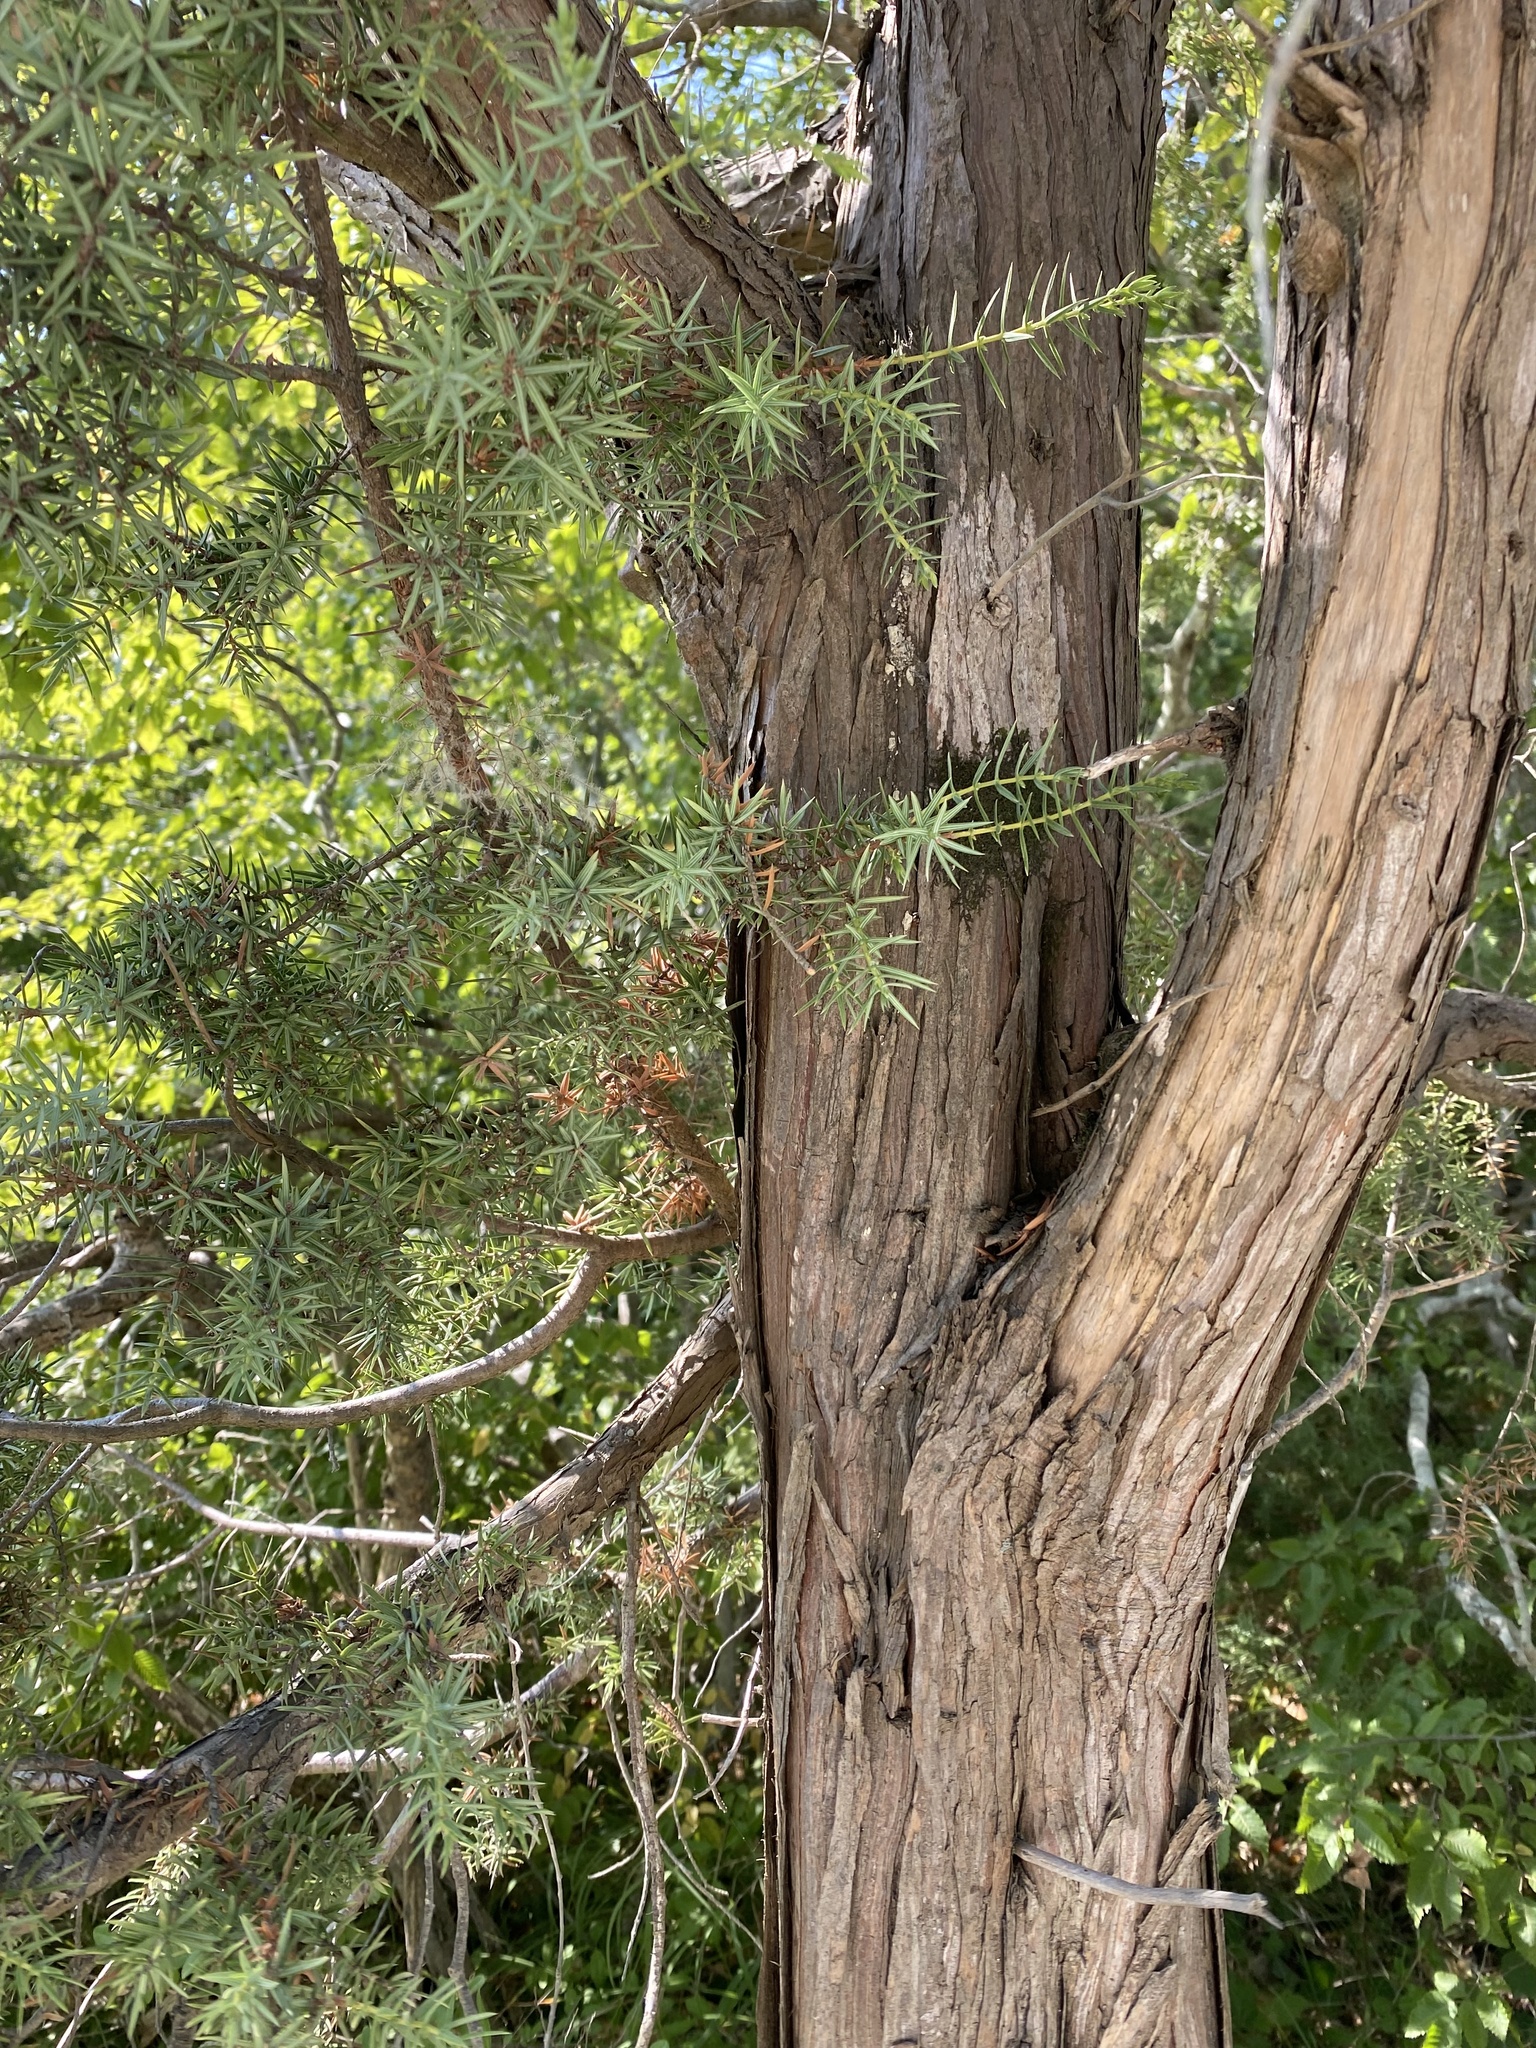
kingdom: Plantae
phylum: Tracheophyta
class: Pinopsida
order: Pinales
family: Cupressaceae
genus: Juniperus
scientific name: Juniperus oxycedrus
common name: Prickly juniper
